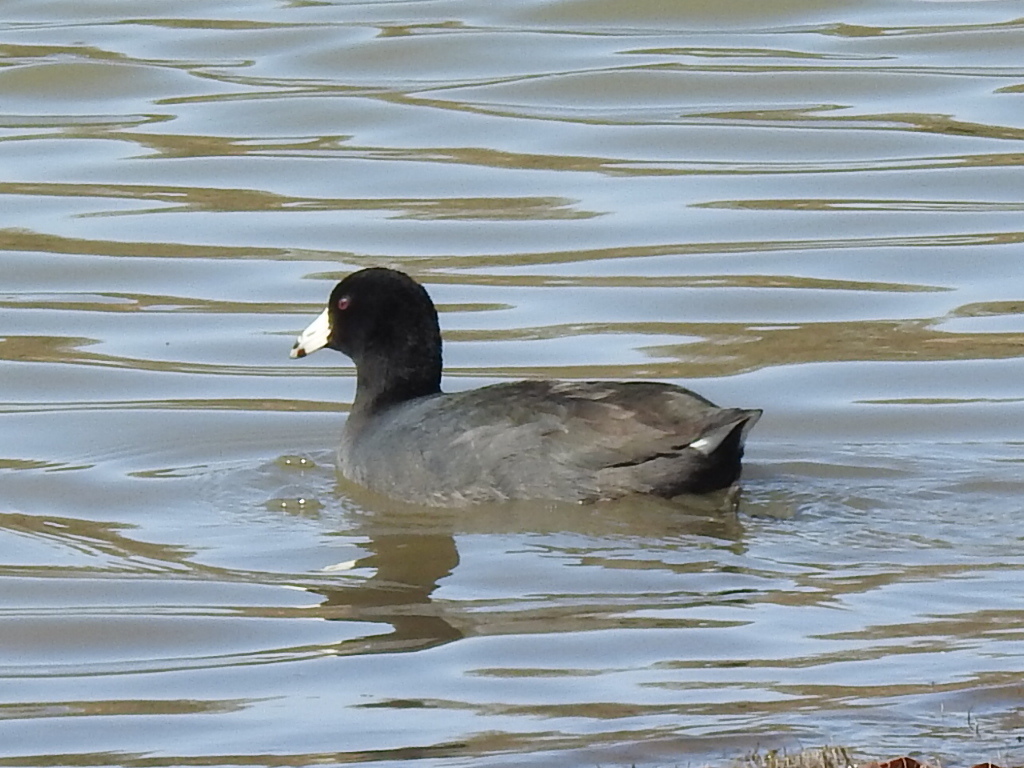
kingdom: Animalia
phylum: Chordata
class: Aves
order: Gruiformes
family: Rallidae
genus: Fulica
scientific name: Fulica americana
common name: American coot
